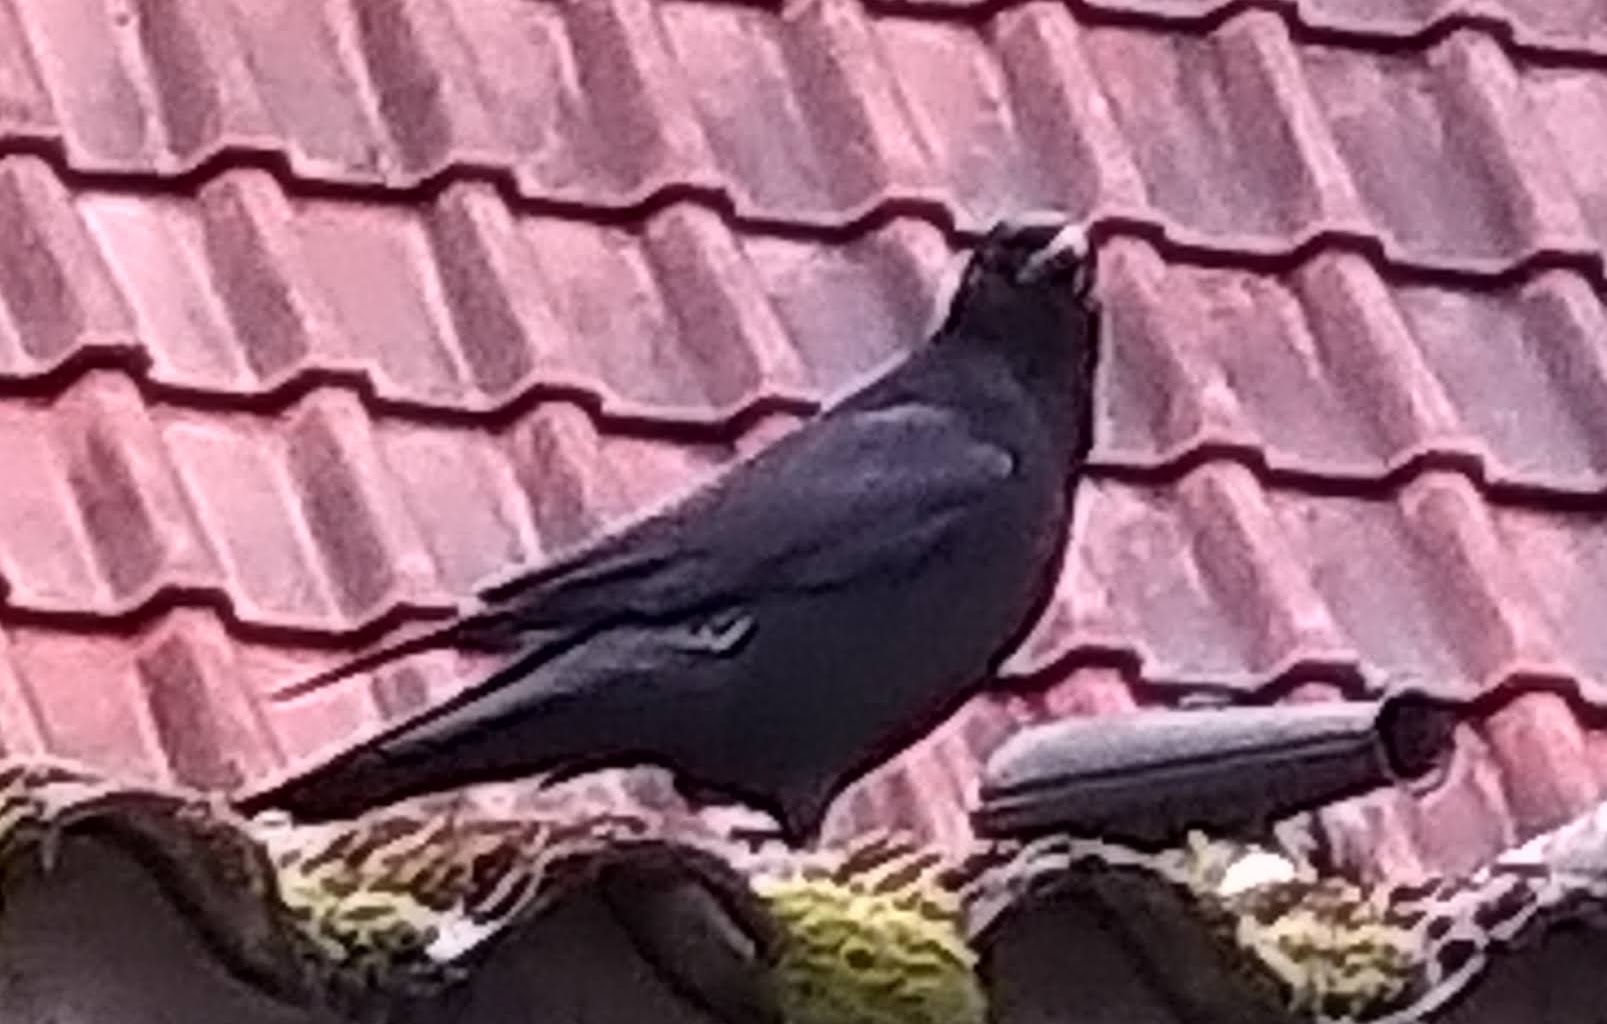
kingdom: Animalia
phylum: Chordata
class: Aves
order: Passeriformes
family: Corvidae
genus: Corvus
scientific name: Corvus corone
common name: Carrion crow
